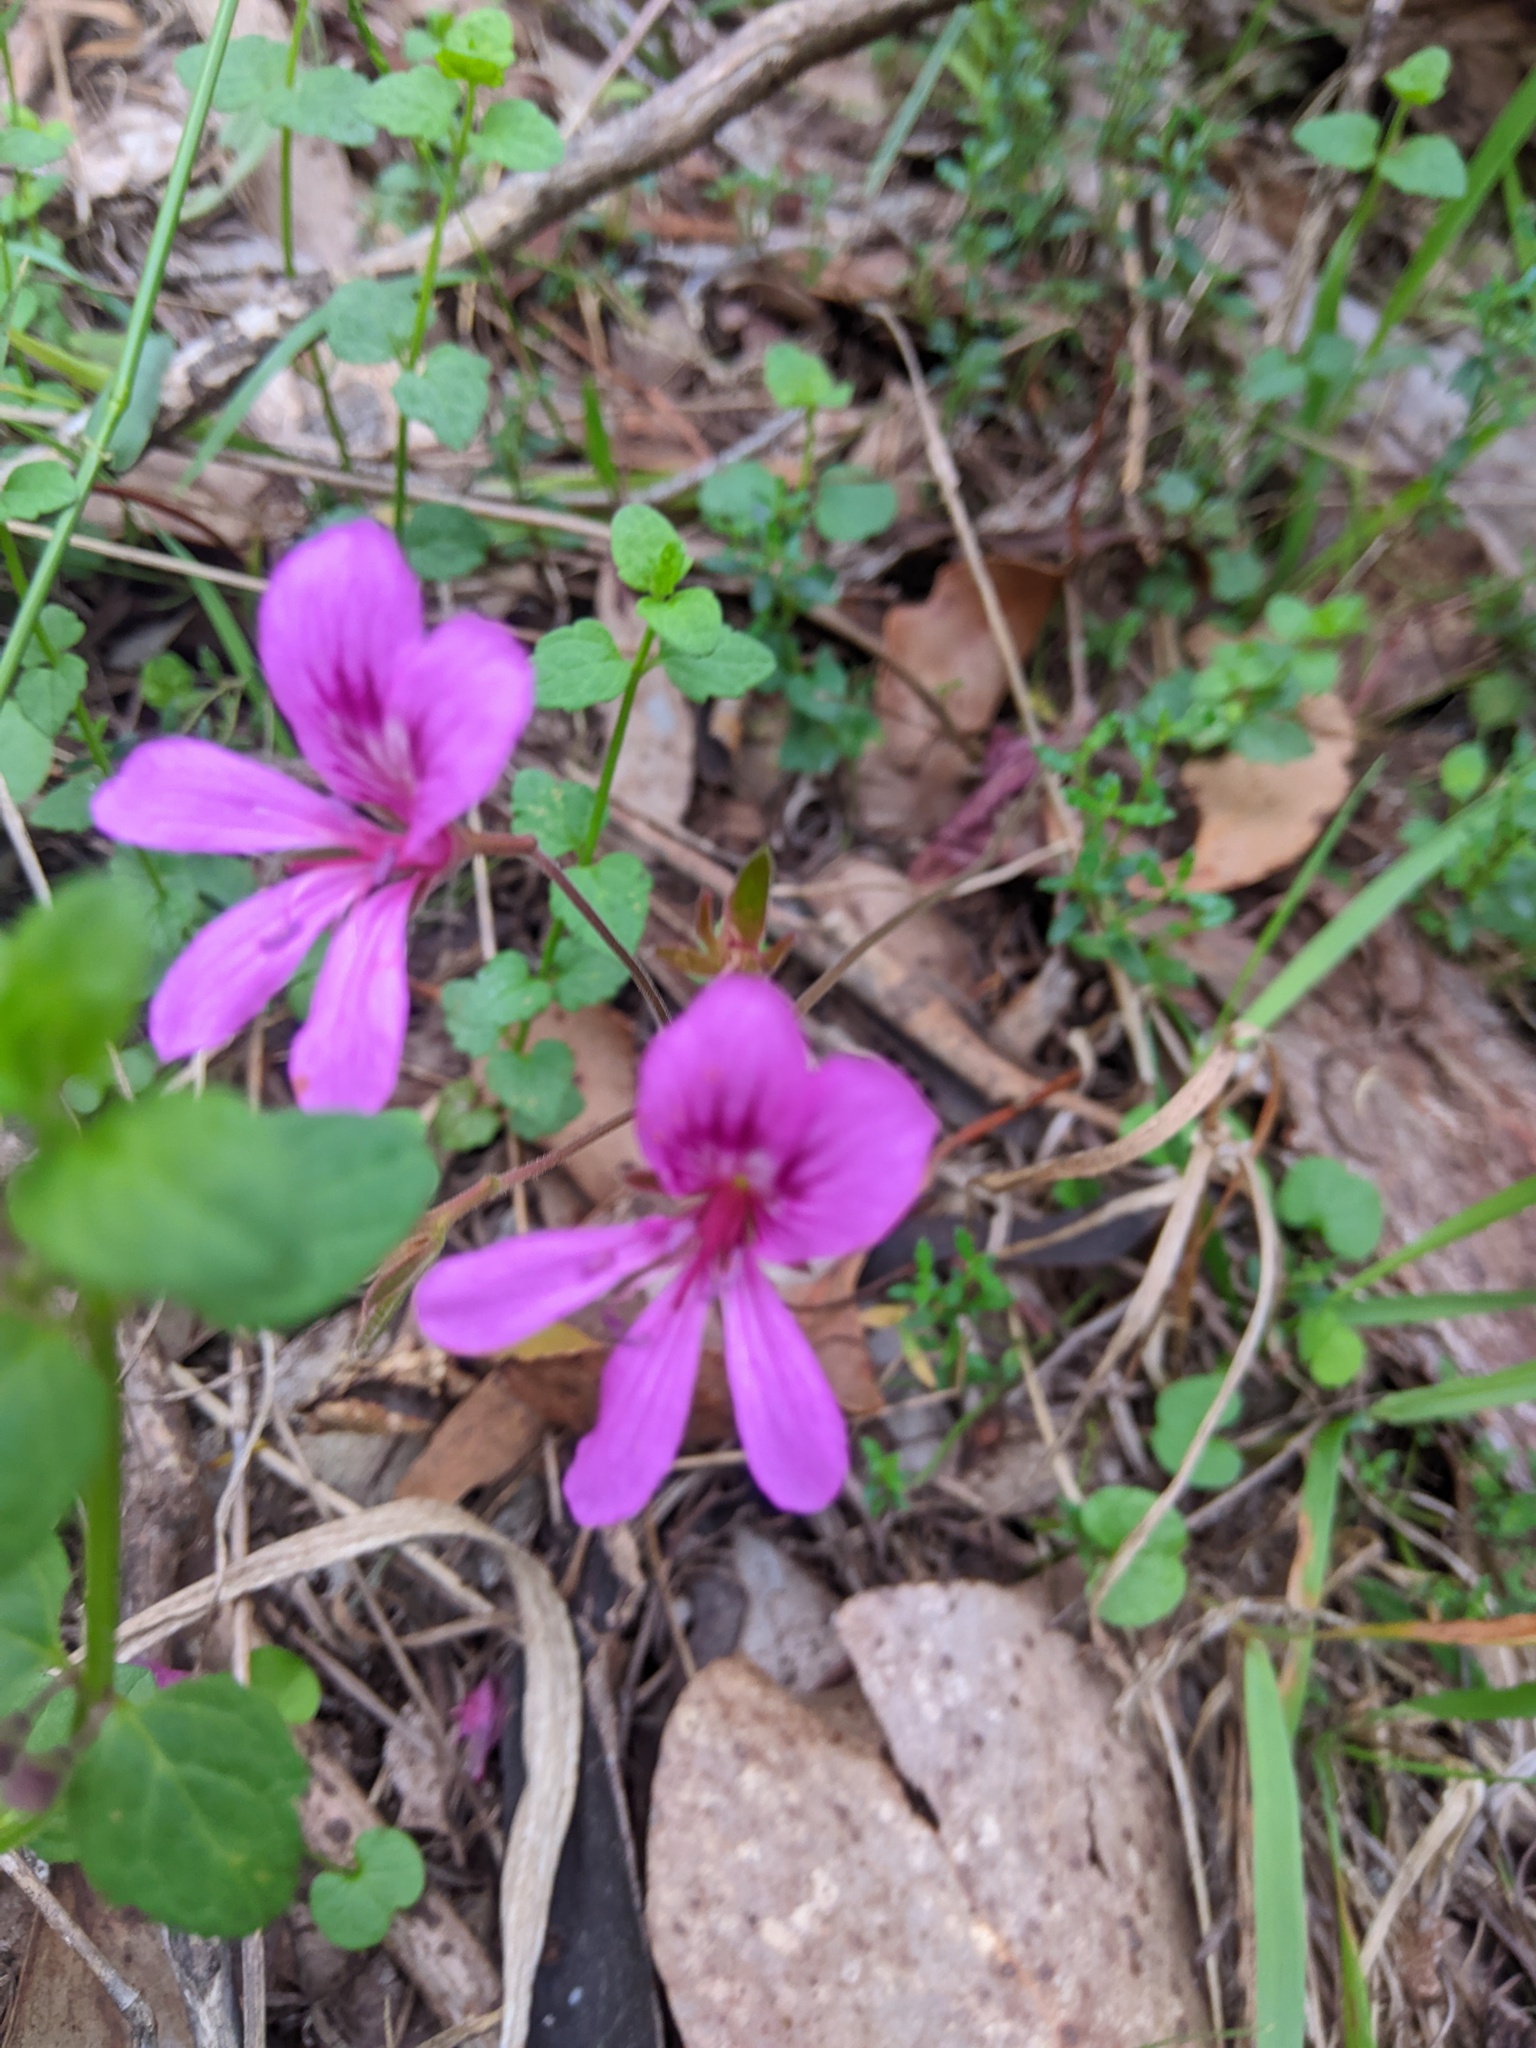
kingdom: Plantae
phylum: Tracheophyta
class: Magnoliopsida
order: Geraniales
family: Geraniaceae
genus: Pelargonium
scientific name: Pelargonium rodneyanum
